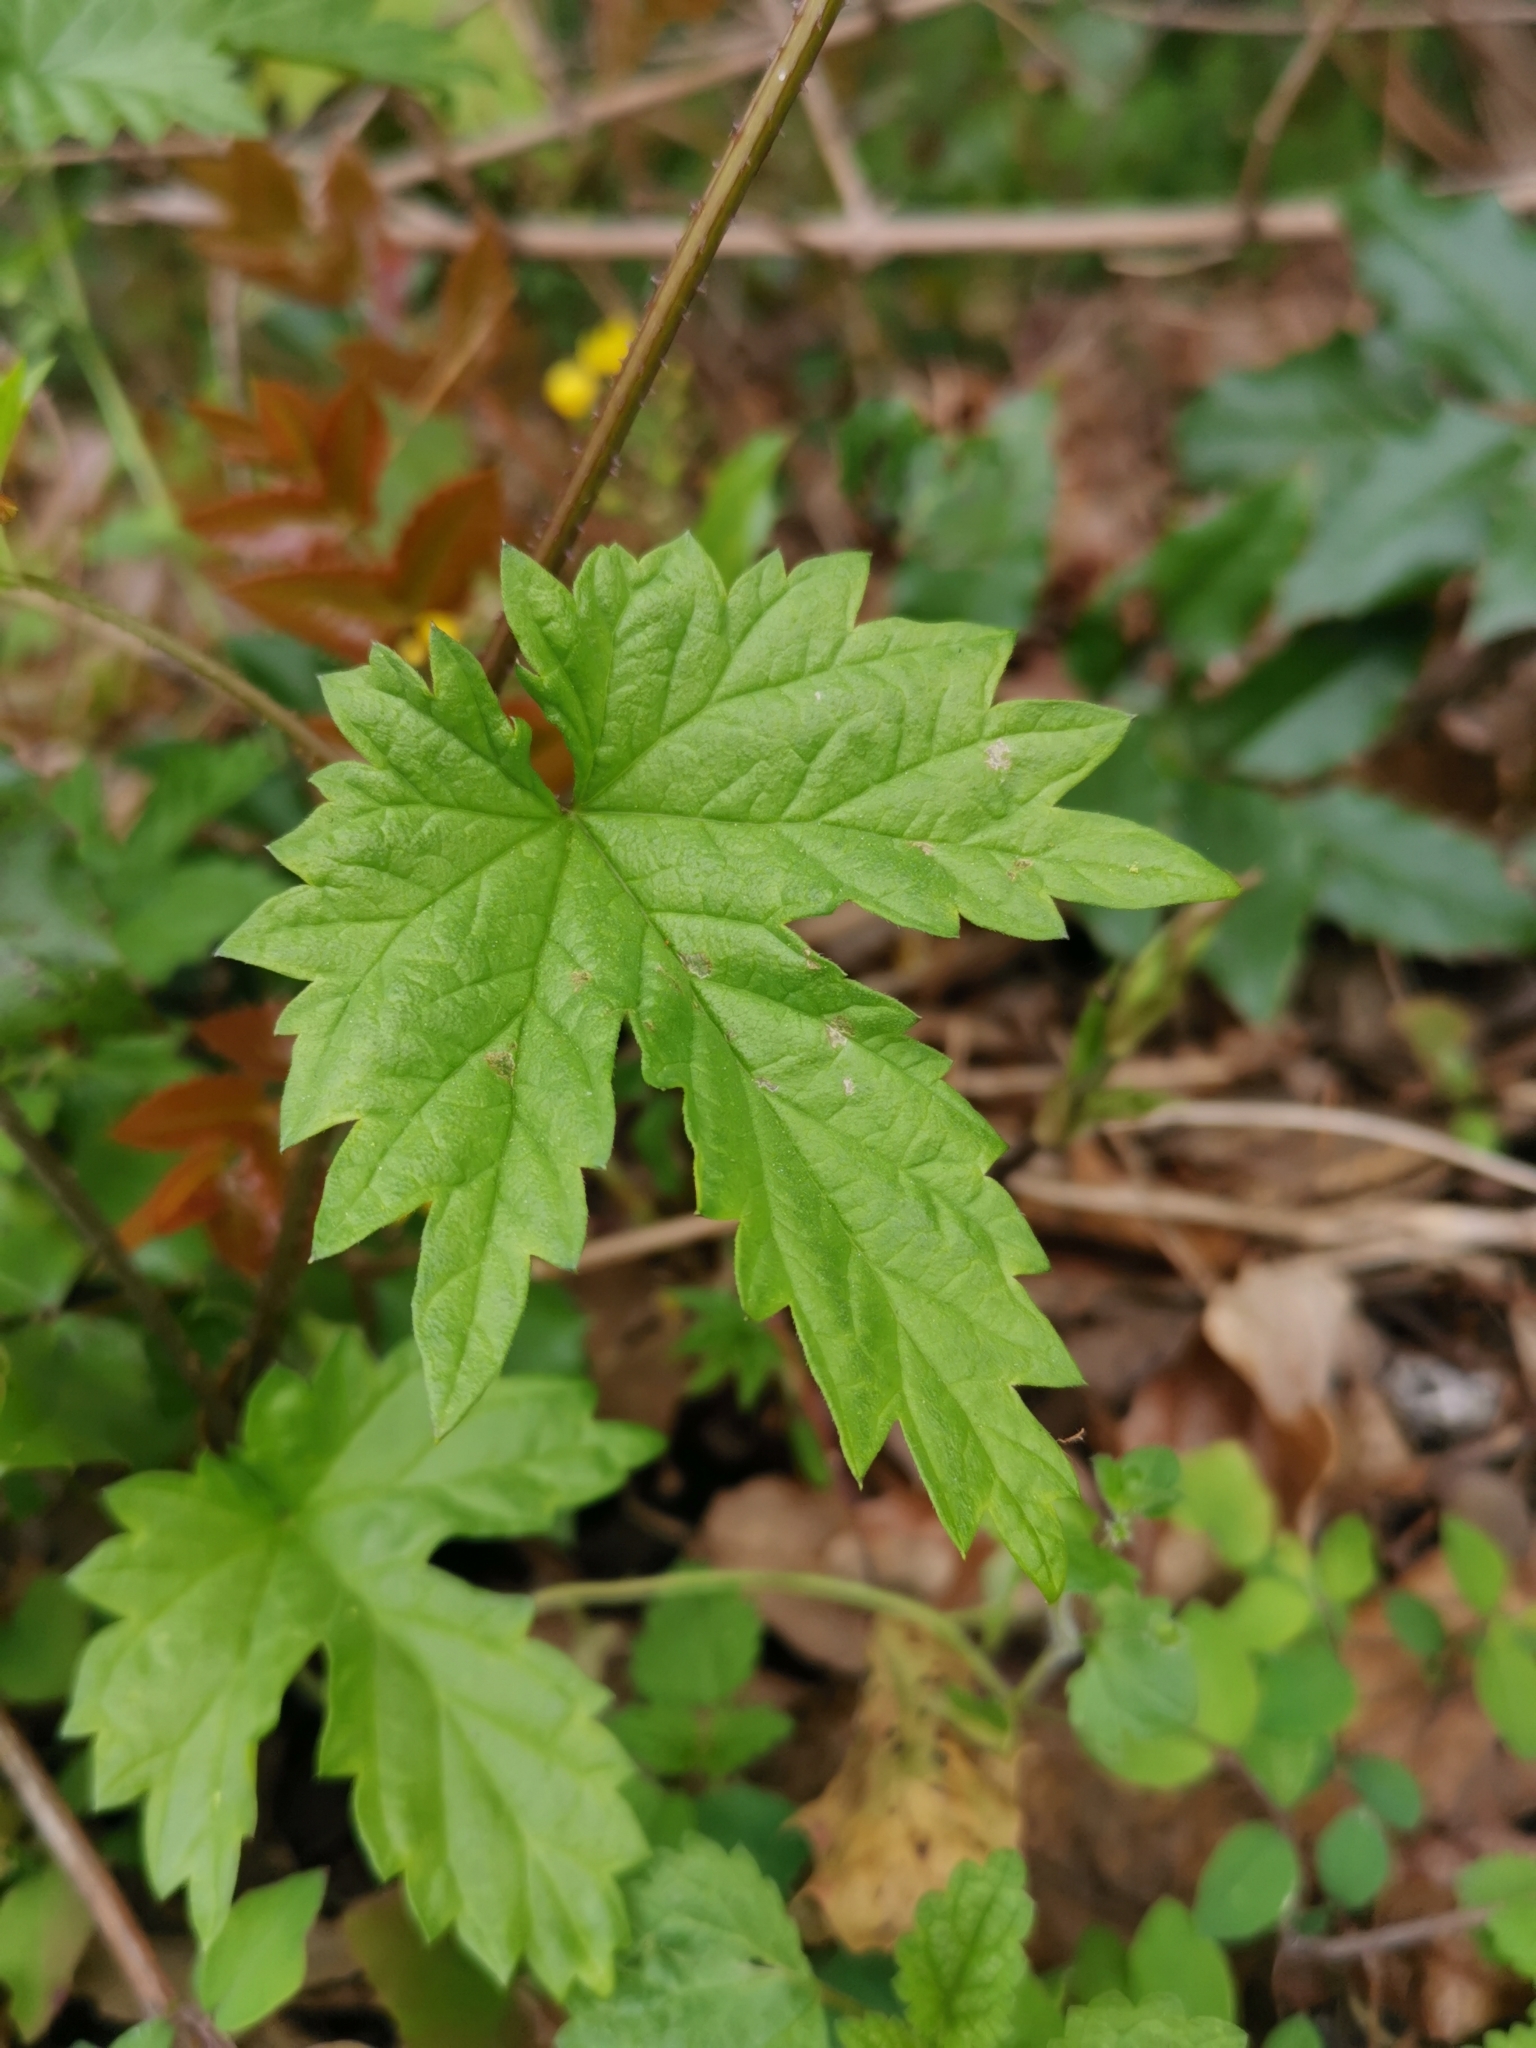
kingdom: Plantae
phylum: Tracheophyta
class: Magnoliopsida
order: Rosales
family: Cannabaceae
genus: Humulus
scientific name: Humulus lupulus
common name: Hop
